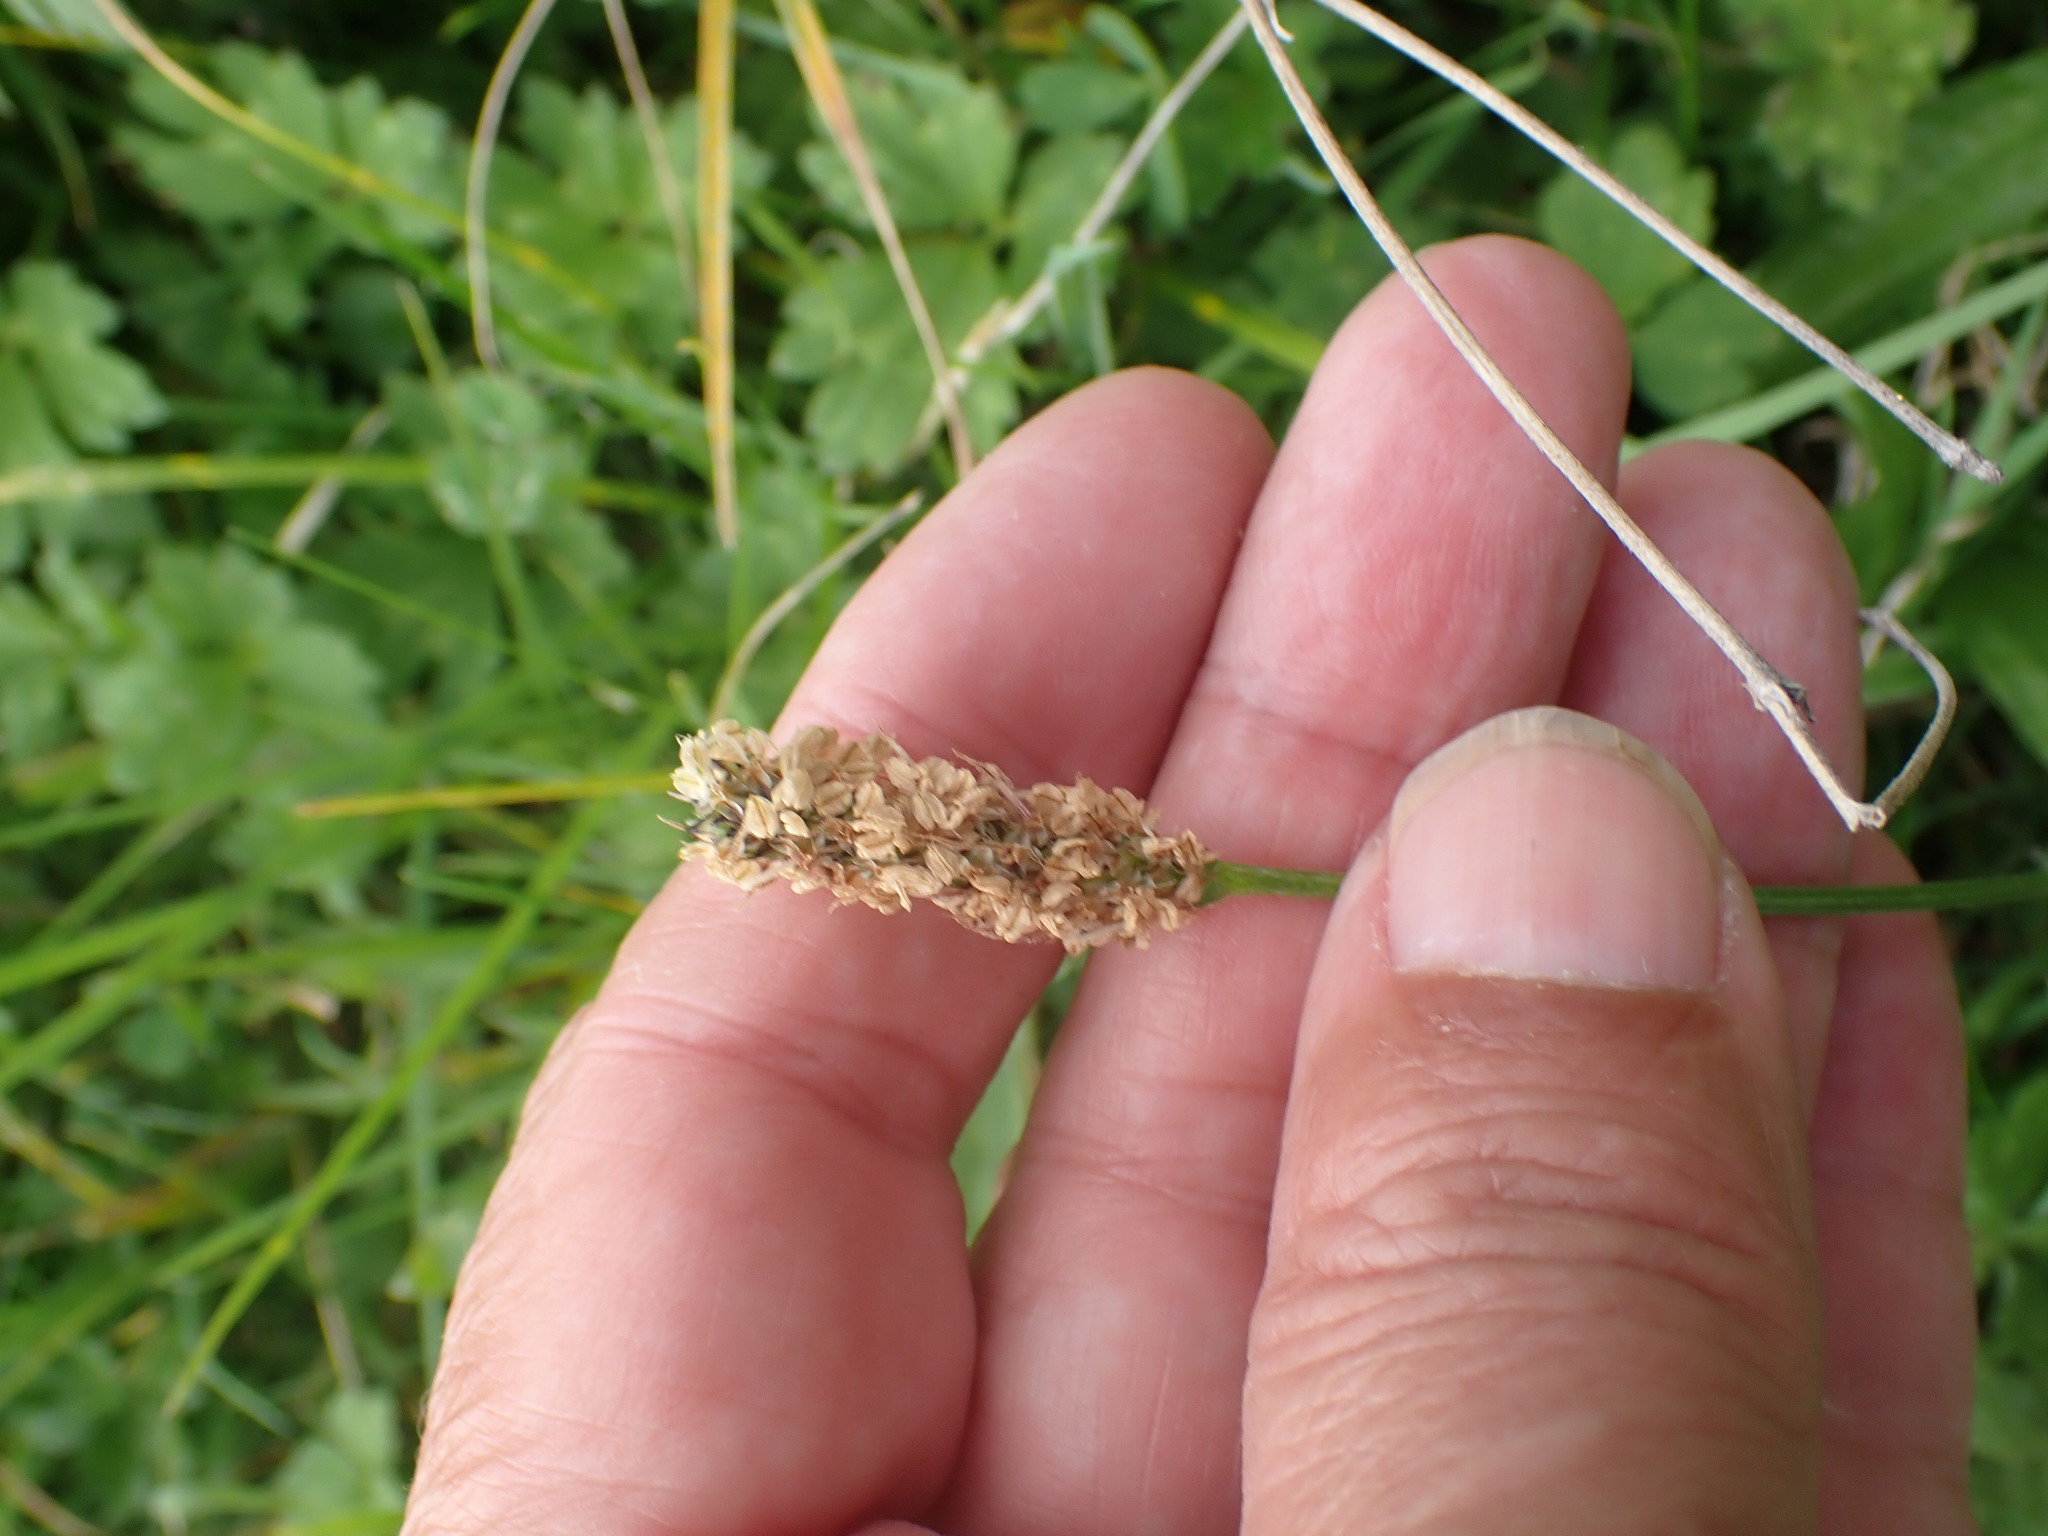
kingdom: Plantae
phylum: Tracheophyta
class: Magnoliopsida
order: Lamiales
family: Plantaginaceae
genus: Plantago
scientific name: Plantago lanceolata
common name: Ribwort plantain
